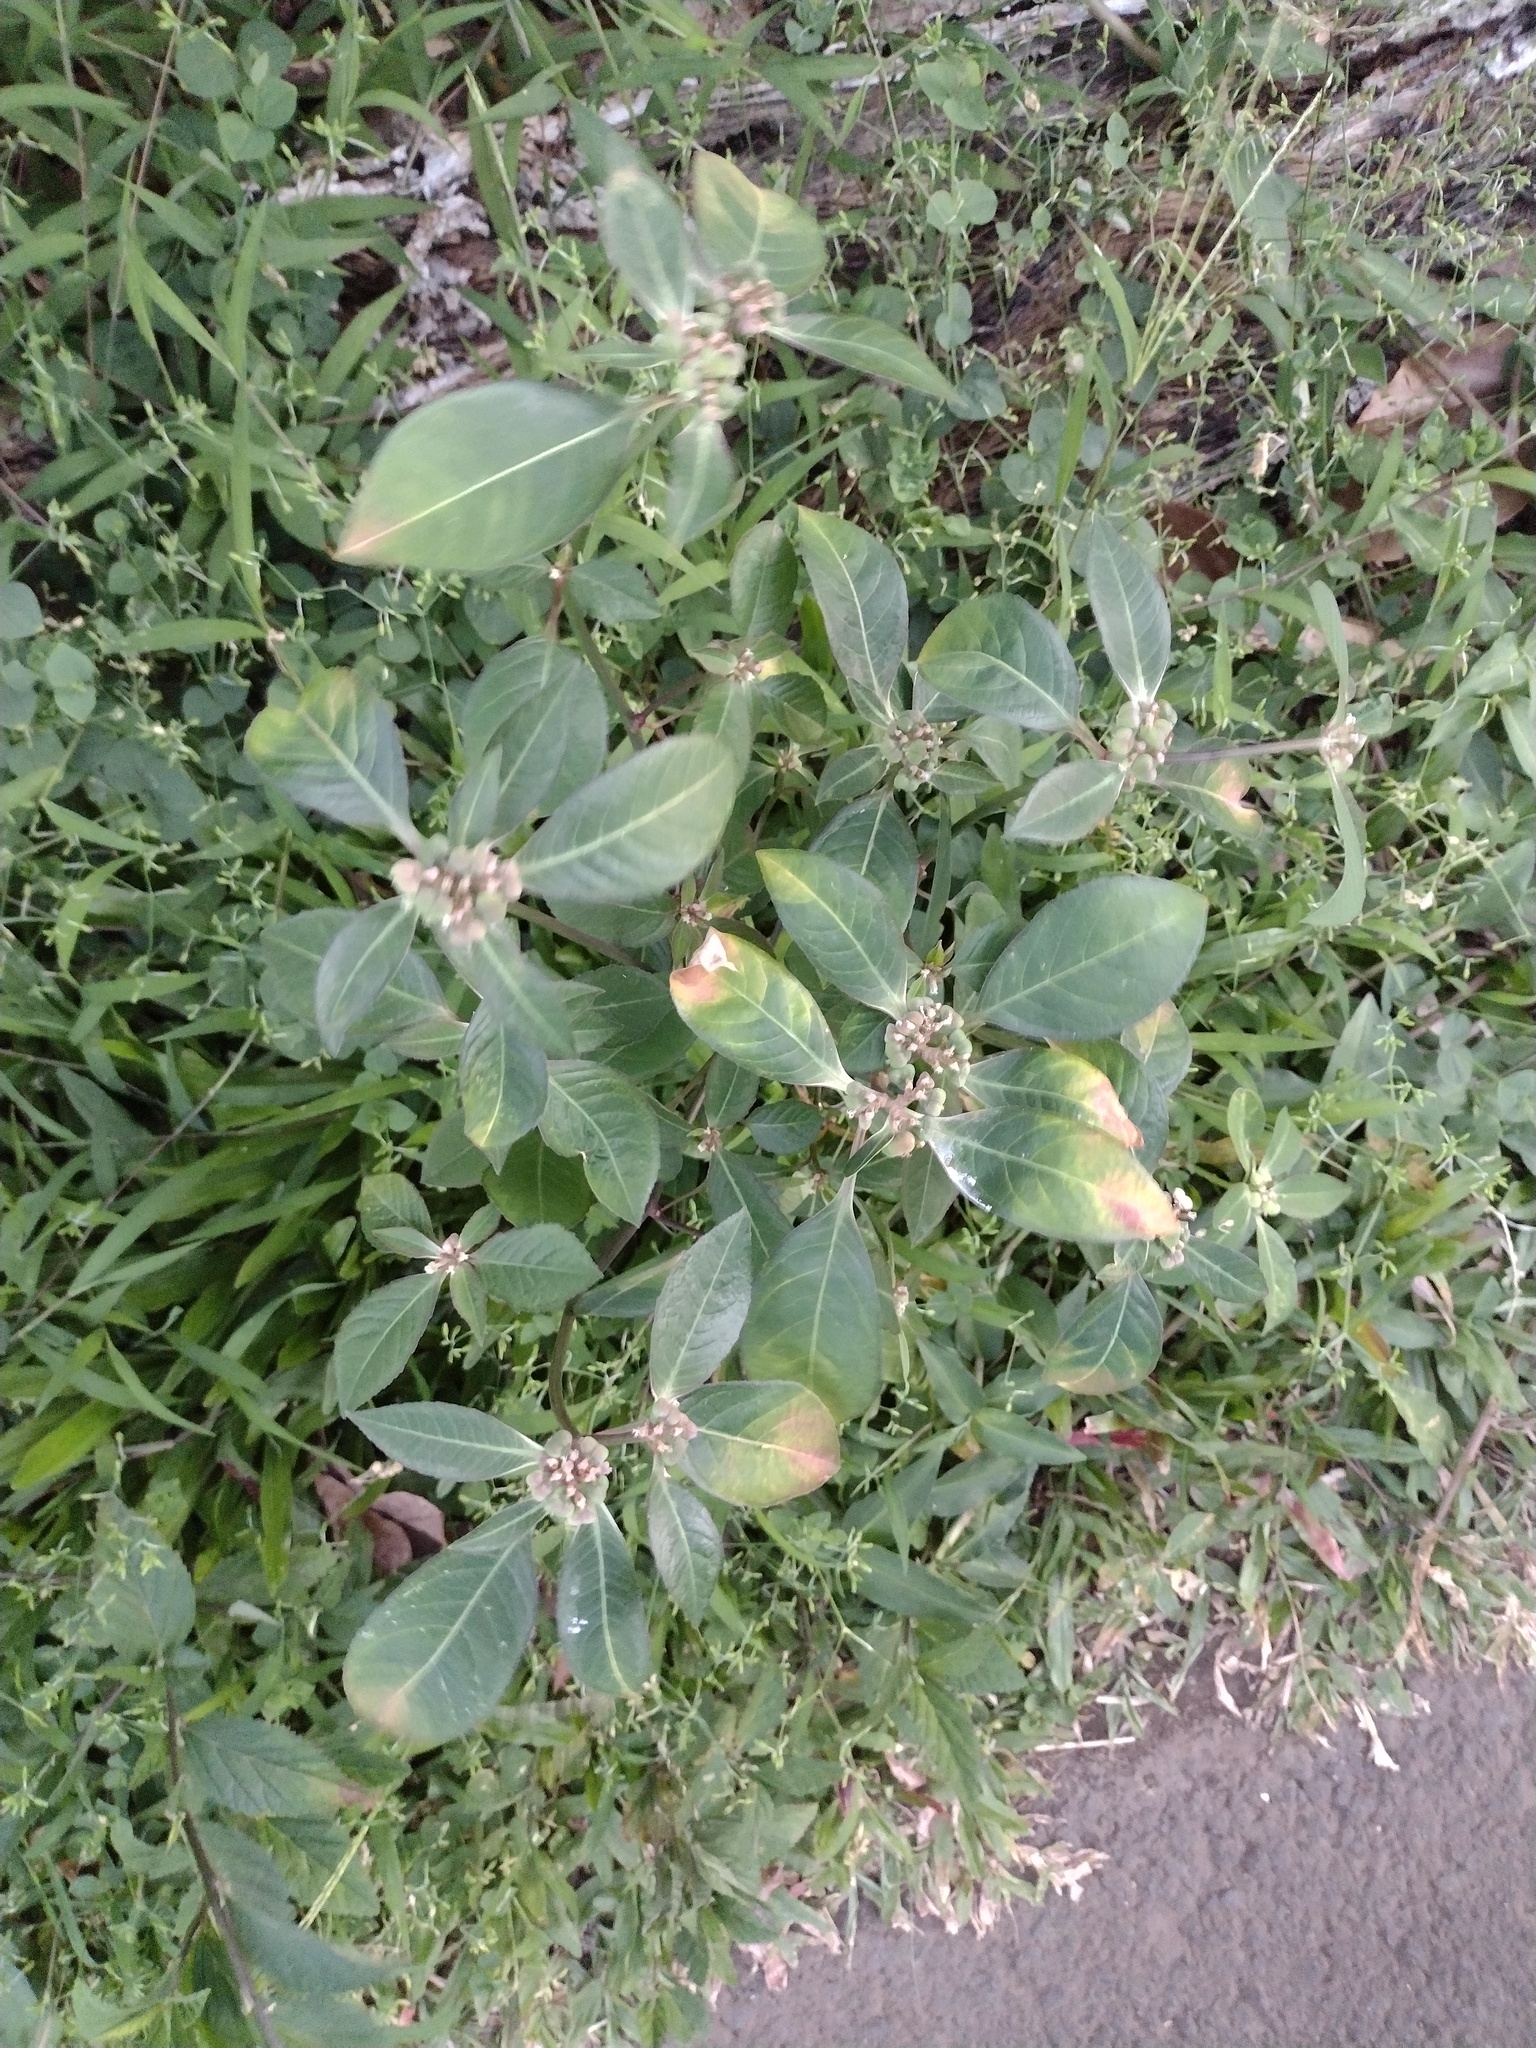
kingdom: Plantae
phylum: Tracheophyta
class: Magnoliopsida
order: Malpighiales
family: Euphorbiaceae
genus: Euphorbia
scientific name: Euphorbia heterophylla
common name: Mexican fireplant
